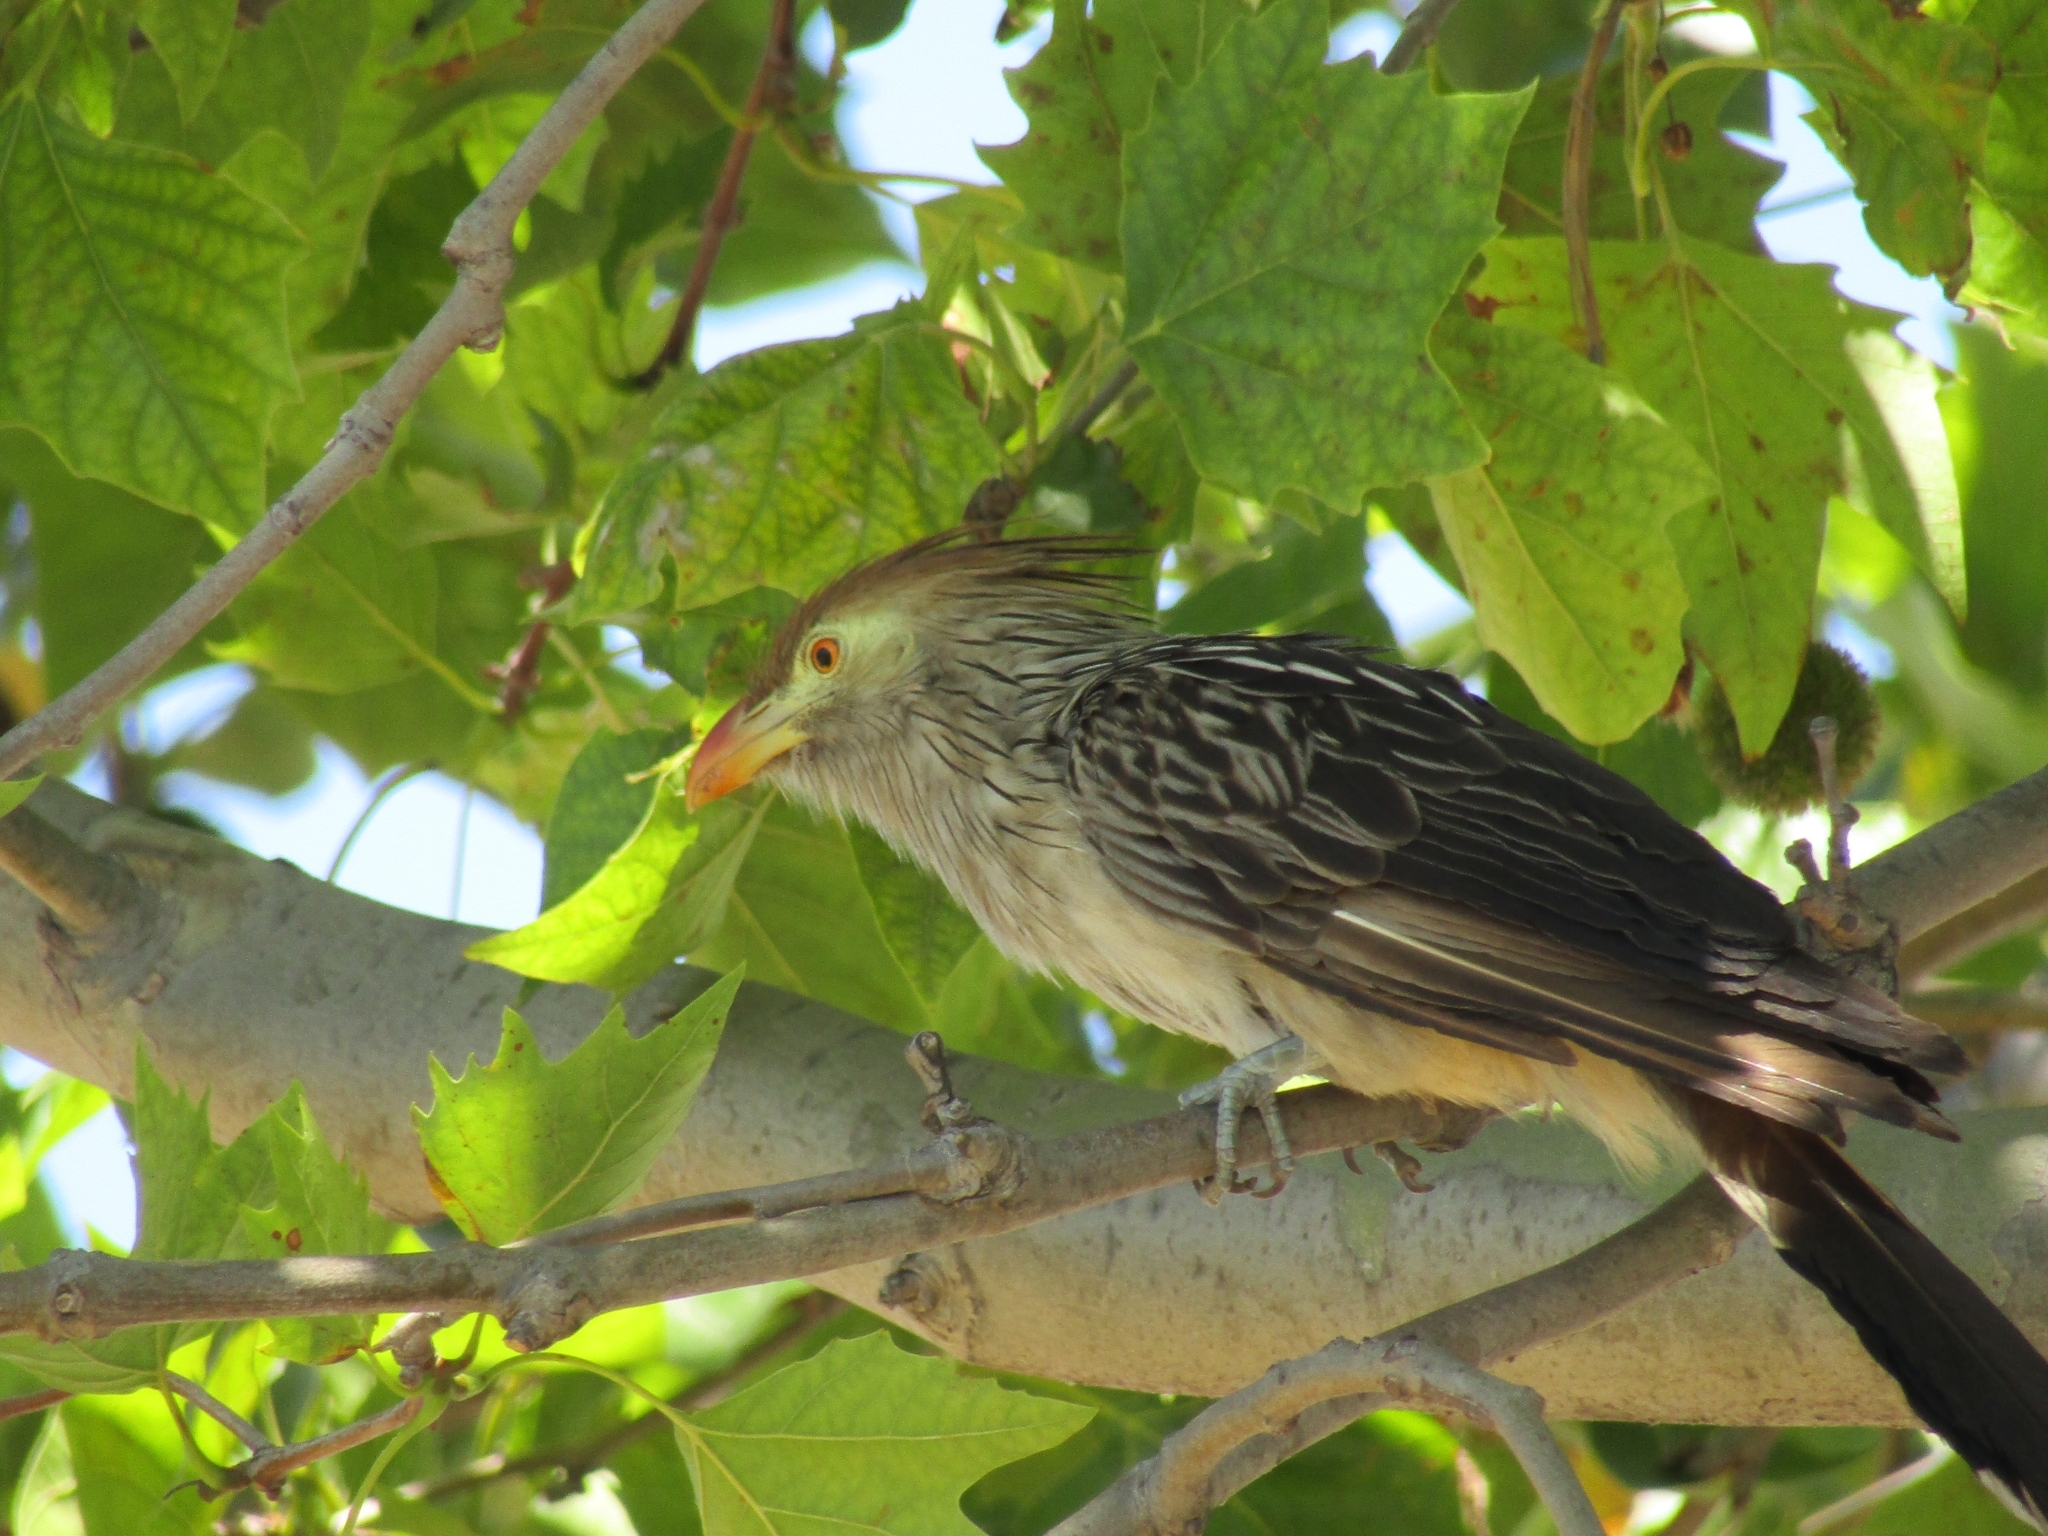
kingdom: Animalia
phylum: Chordata
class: Aves
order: Cuculiformes
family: Cuculidae
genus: Guira
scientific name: Guira guira
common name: Guira cuckoo
